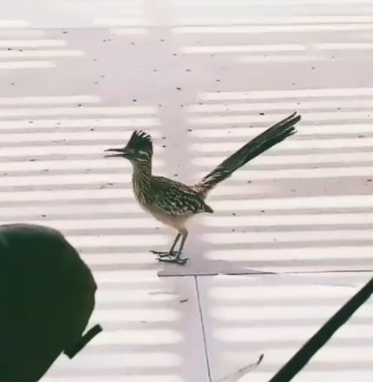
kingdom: Animalia
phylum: Chordata
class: Aves
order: Cuculiformes
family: Cuculidae
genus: Geococcyx
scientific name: Geococcyx californianus
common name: Greater roadrunner
